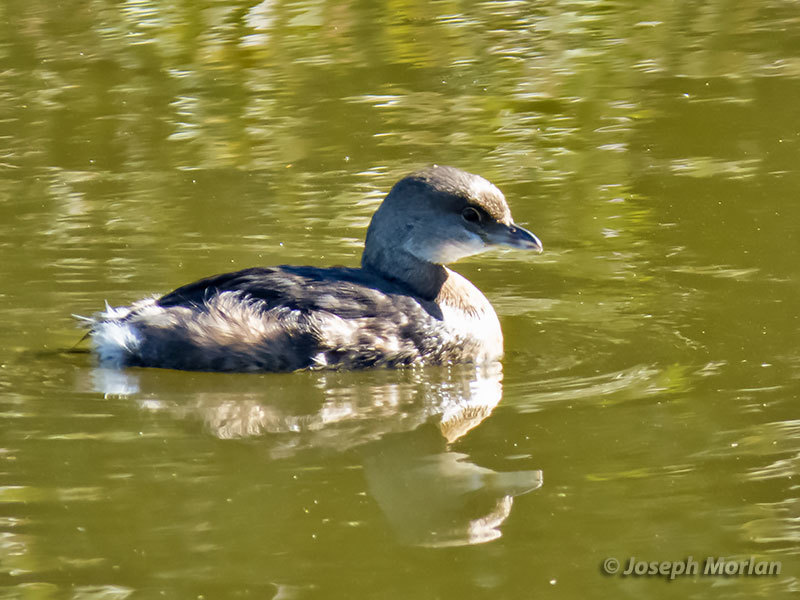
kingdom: Animalia
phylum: Chordata
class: Aves
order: Podicipediformes
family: Podicipedidae
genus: Podilymbus
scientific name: Podilymbus podiceps
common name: Pied-billed grebe
